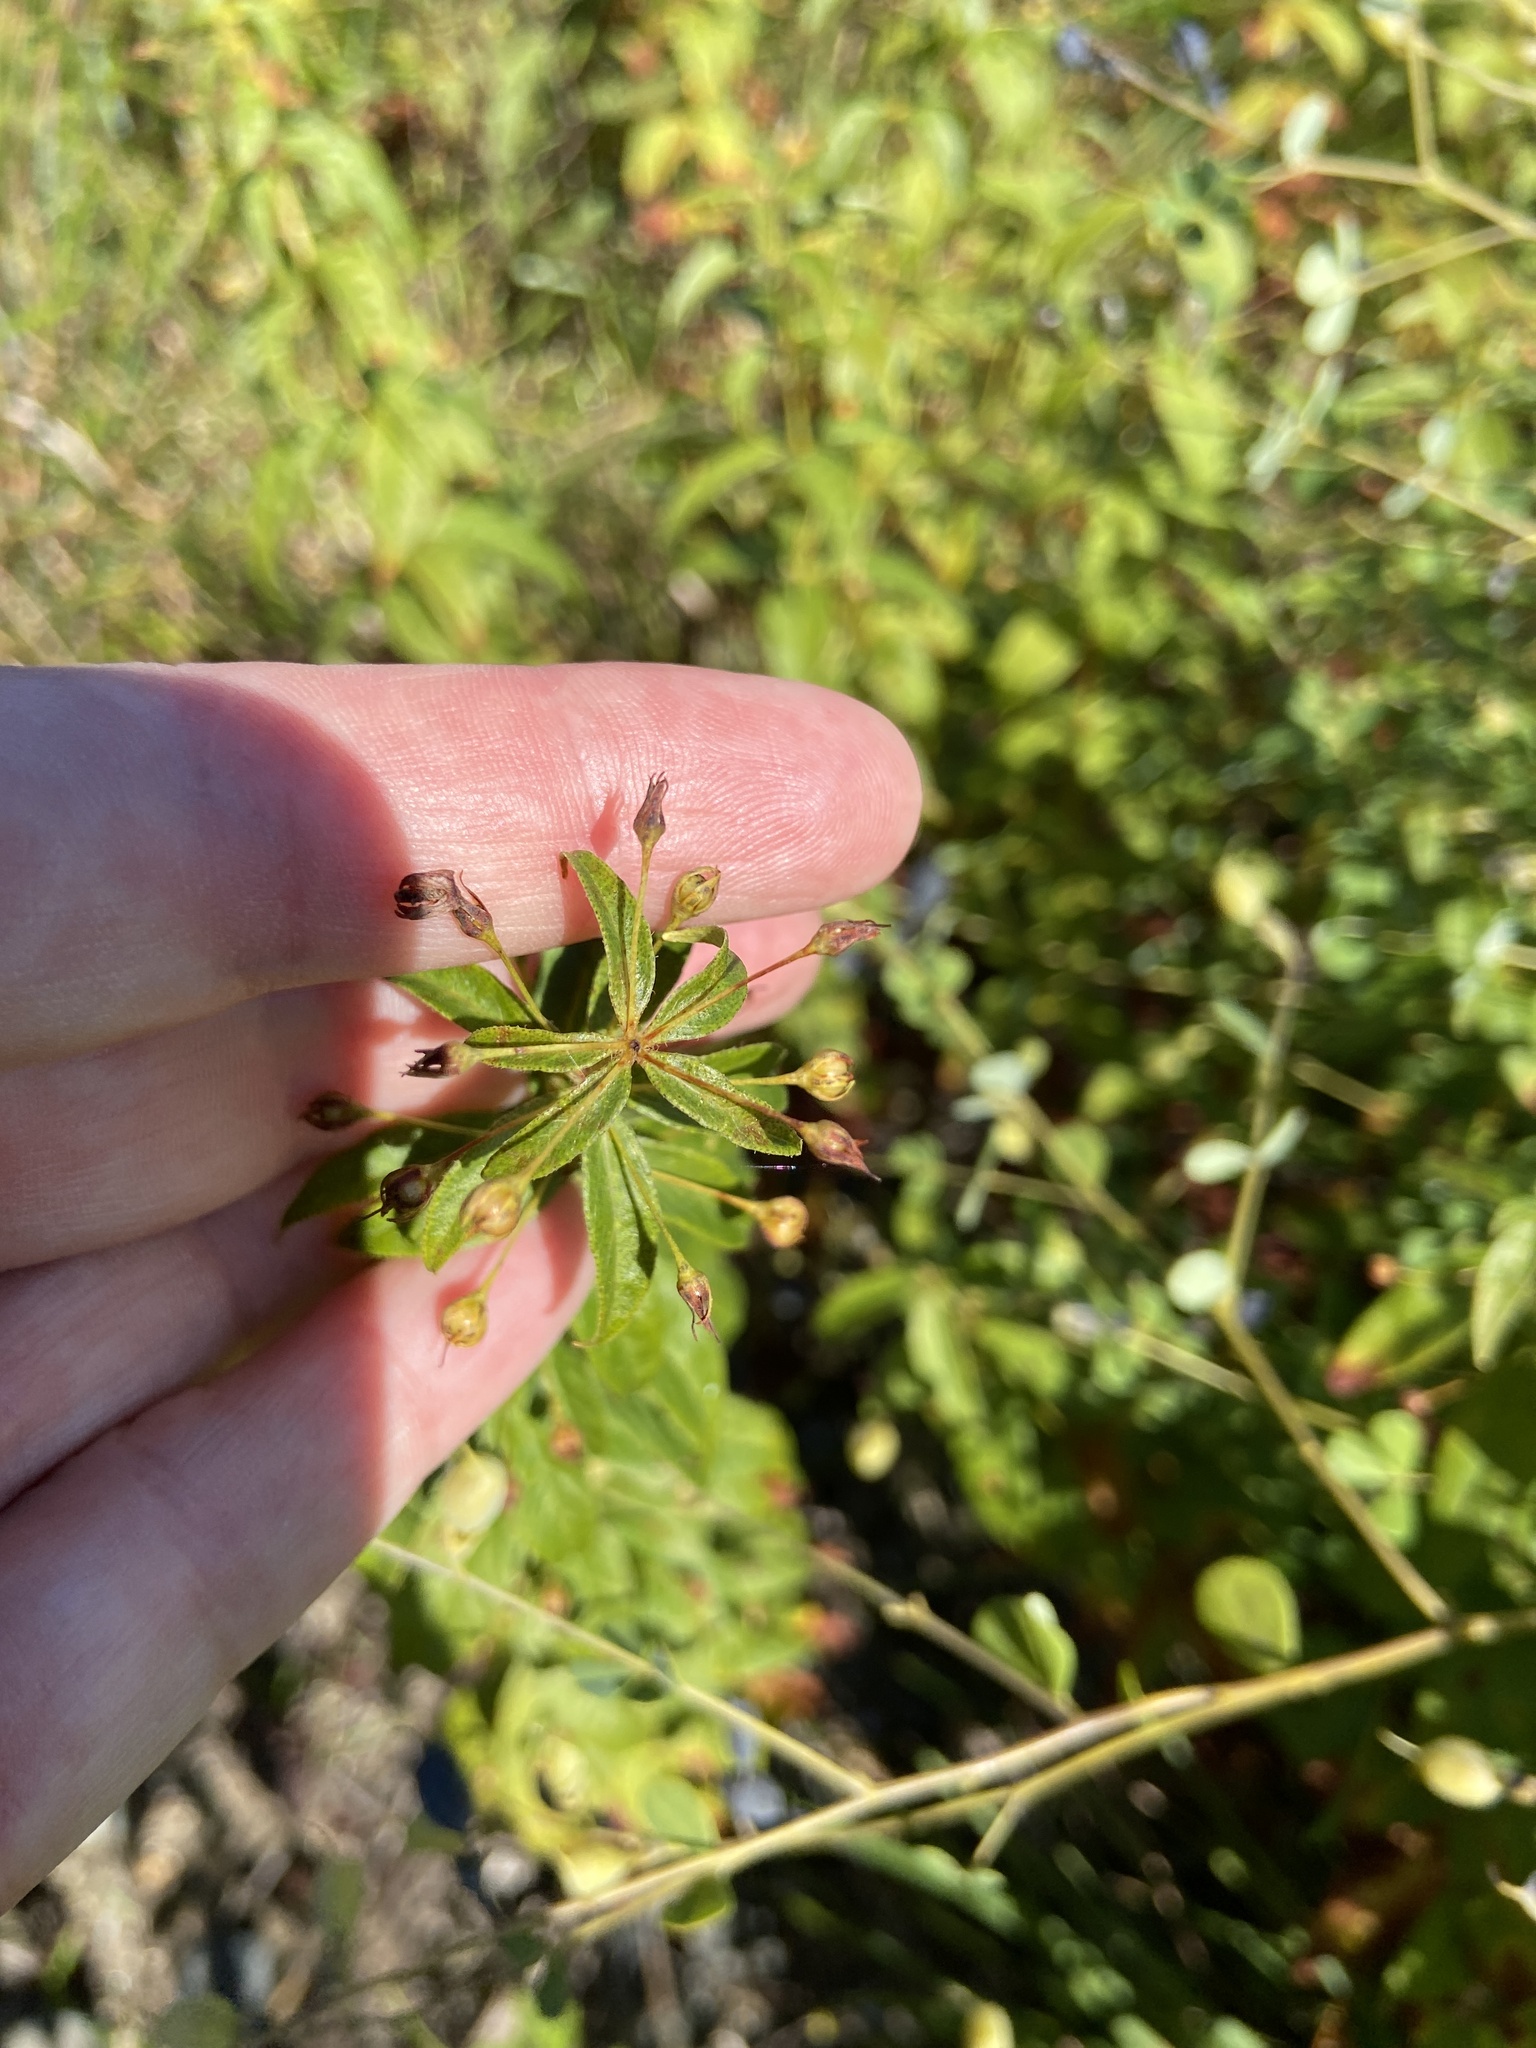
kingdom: Plantae
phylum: Tracheophyta
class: Magnoliopsida
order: Ericales
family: Primulaceae
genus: Lysimachia
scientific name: Lysimachia quadrifolia
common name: Whorled loosestrife
